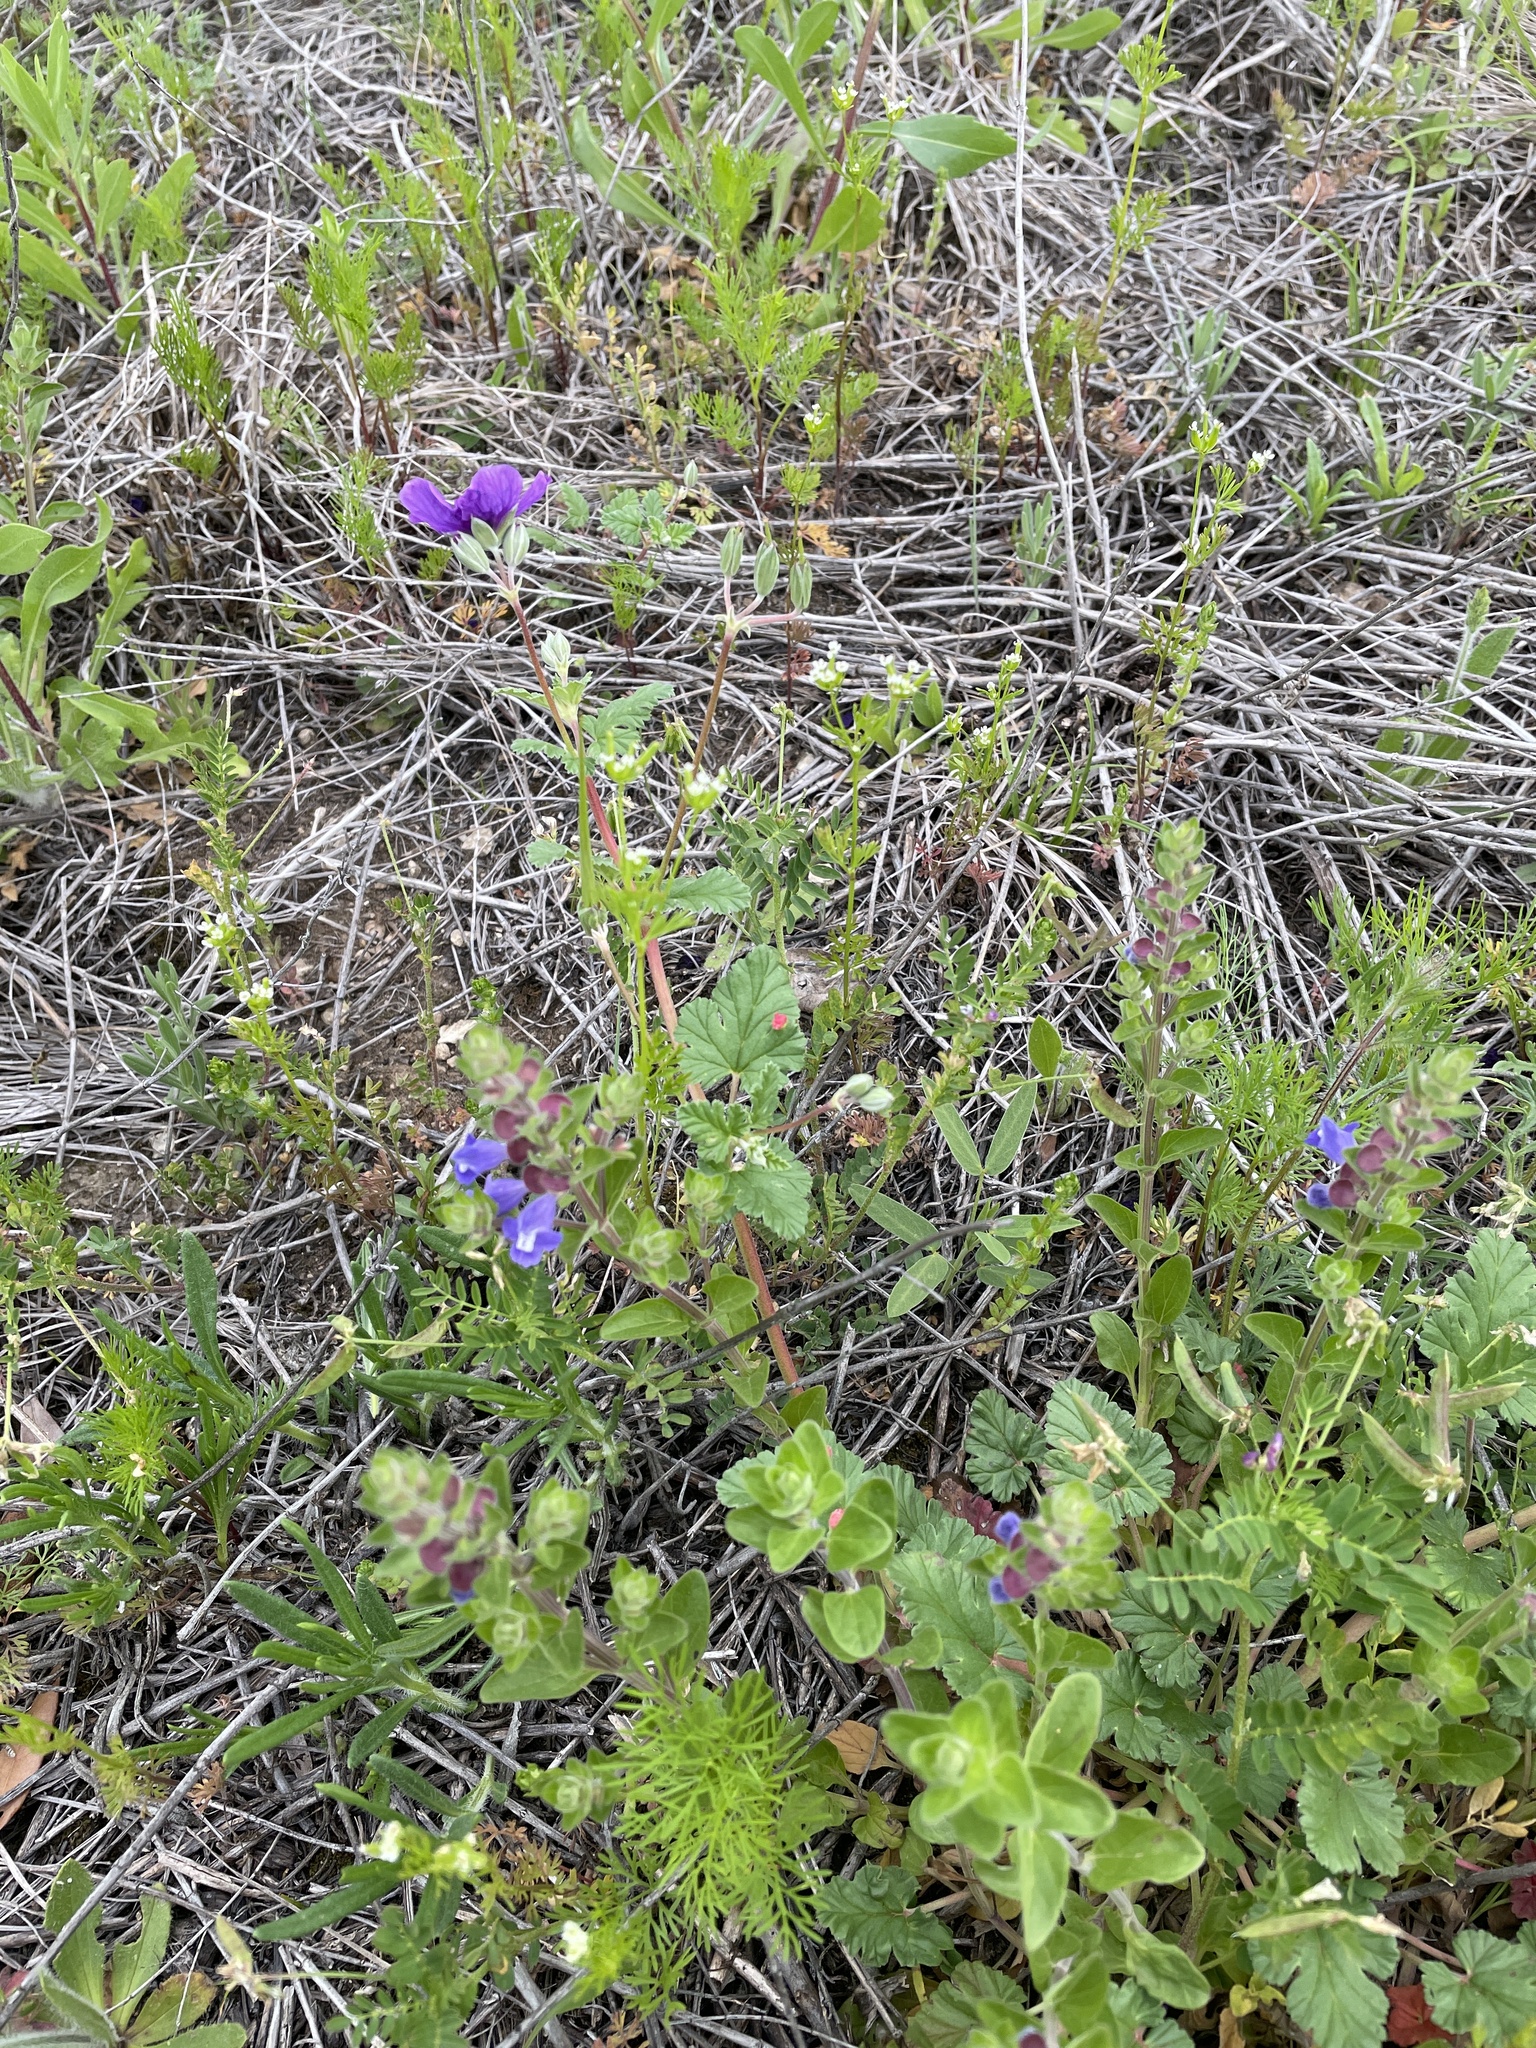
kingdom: Plantae
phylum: Tracheophyta
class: Magnoliopsida
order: Apiales
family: Apiaceae
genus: Chaerophyllum
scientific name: Chaerophyllum tainturieri
